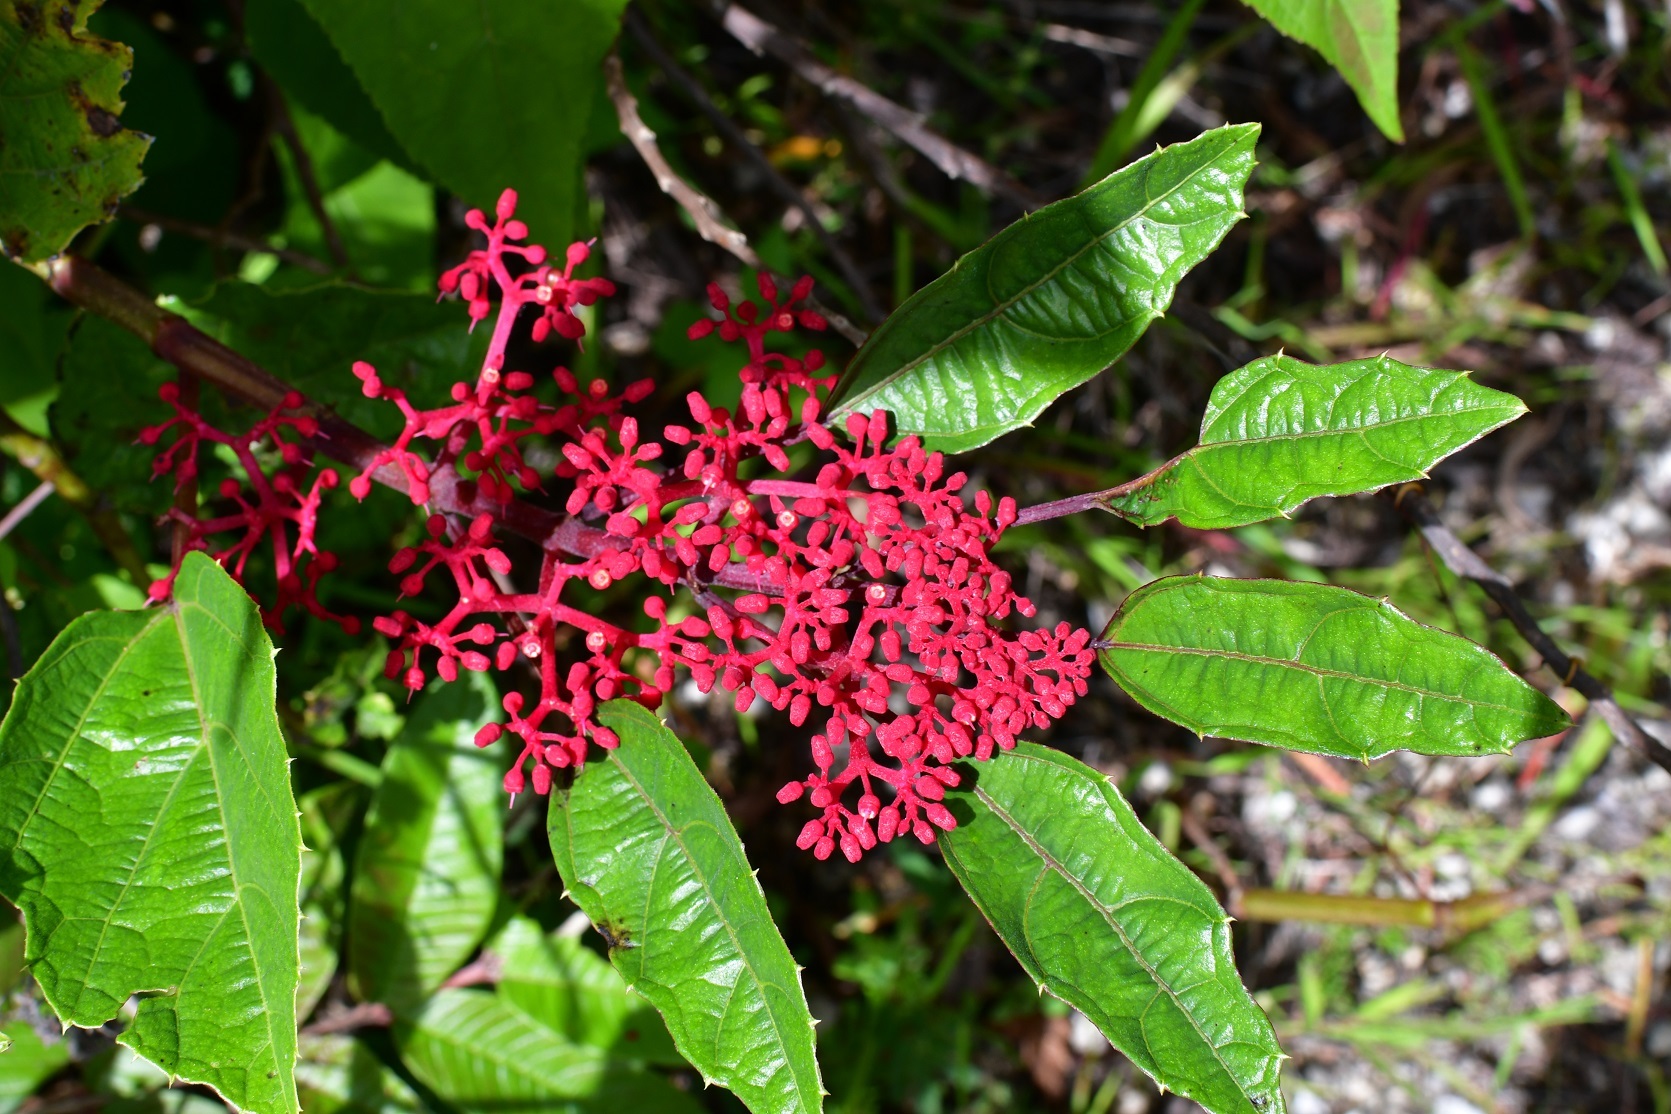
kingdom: Plantae
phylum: Tracheophyta
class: Magnoliopsida
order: Vitales
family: Vitaceae
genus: Cissus
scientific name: Cissus biformifolia
